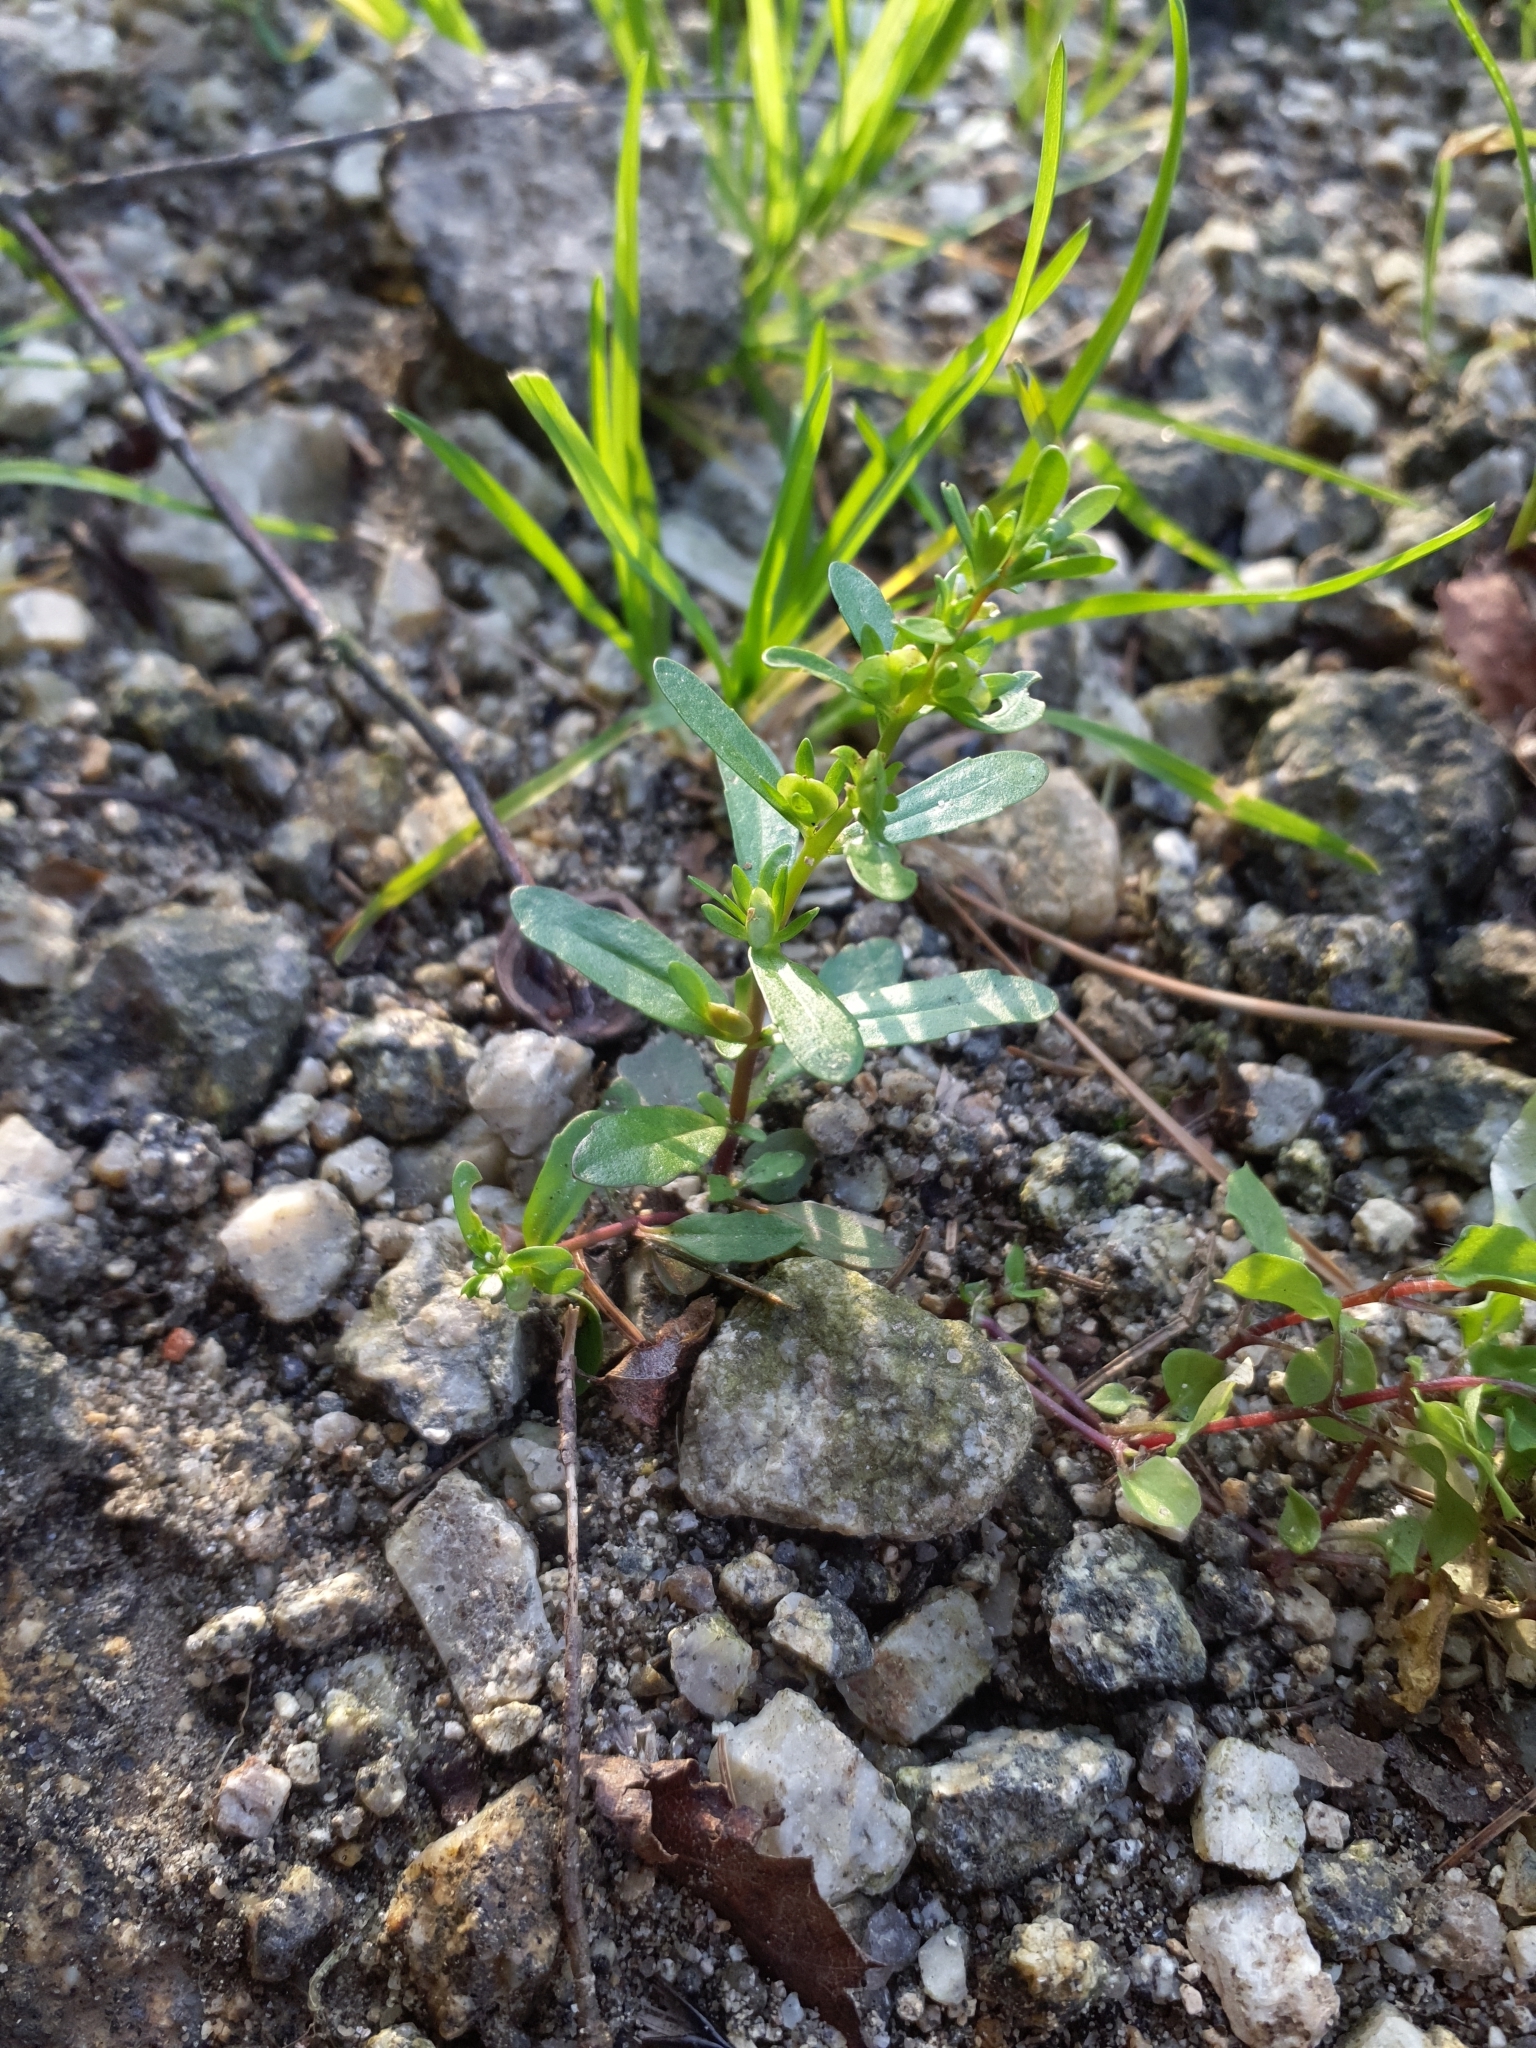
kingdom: Plantae
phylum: Tracheophyta
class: Magnoliopsida
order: Lamiales
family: Plantaginaceae
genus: Veronica
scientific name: Veronica peregrina
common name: Neckweed
